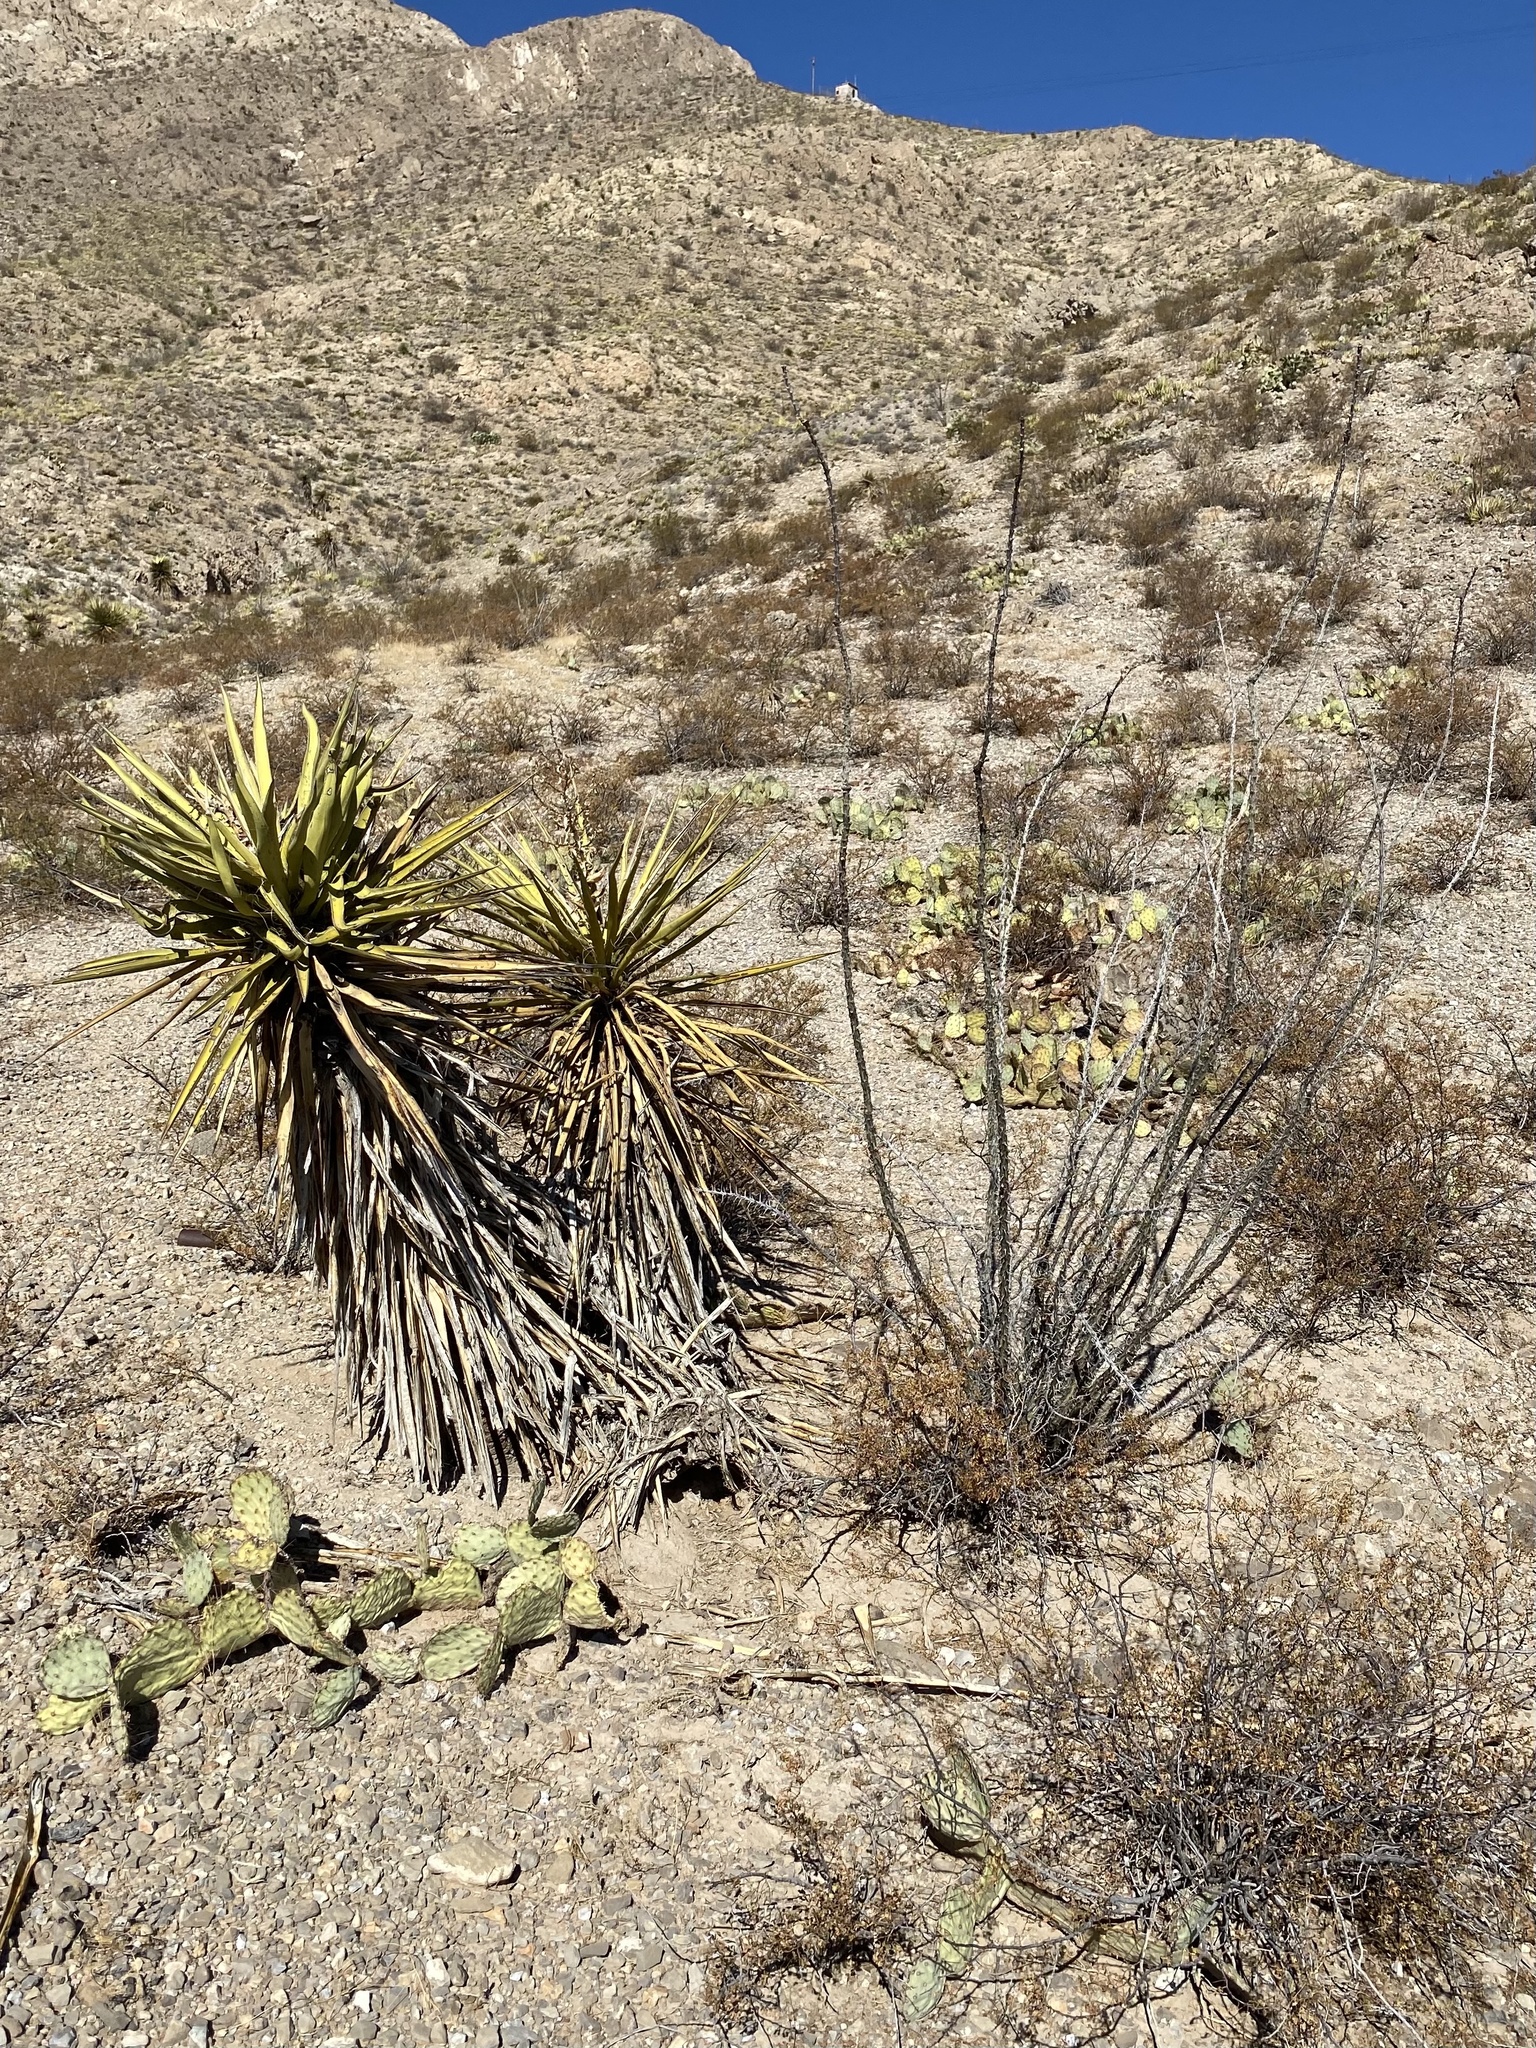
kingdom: Plantae
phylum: Tracheophyta
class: Magnoliopsida
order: Ericales
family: Fouquieriaceae
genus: Fouquieria
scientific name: Fouquieria splendens
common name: Vine-cactus
